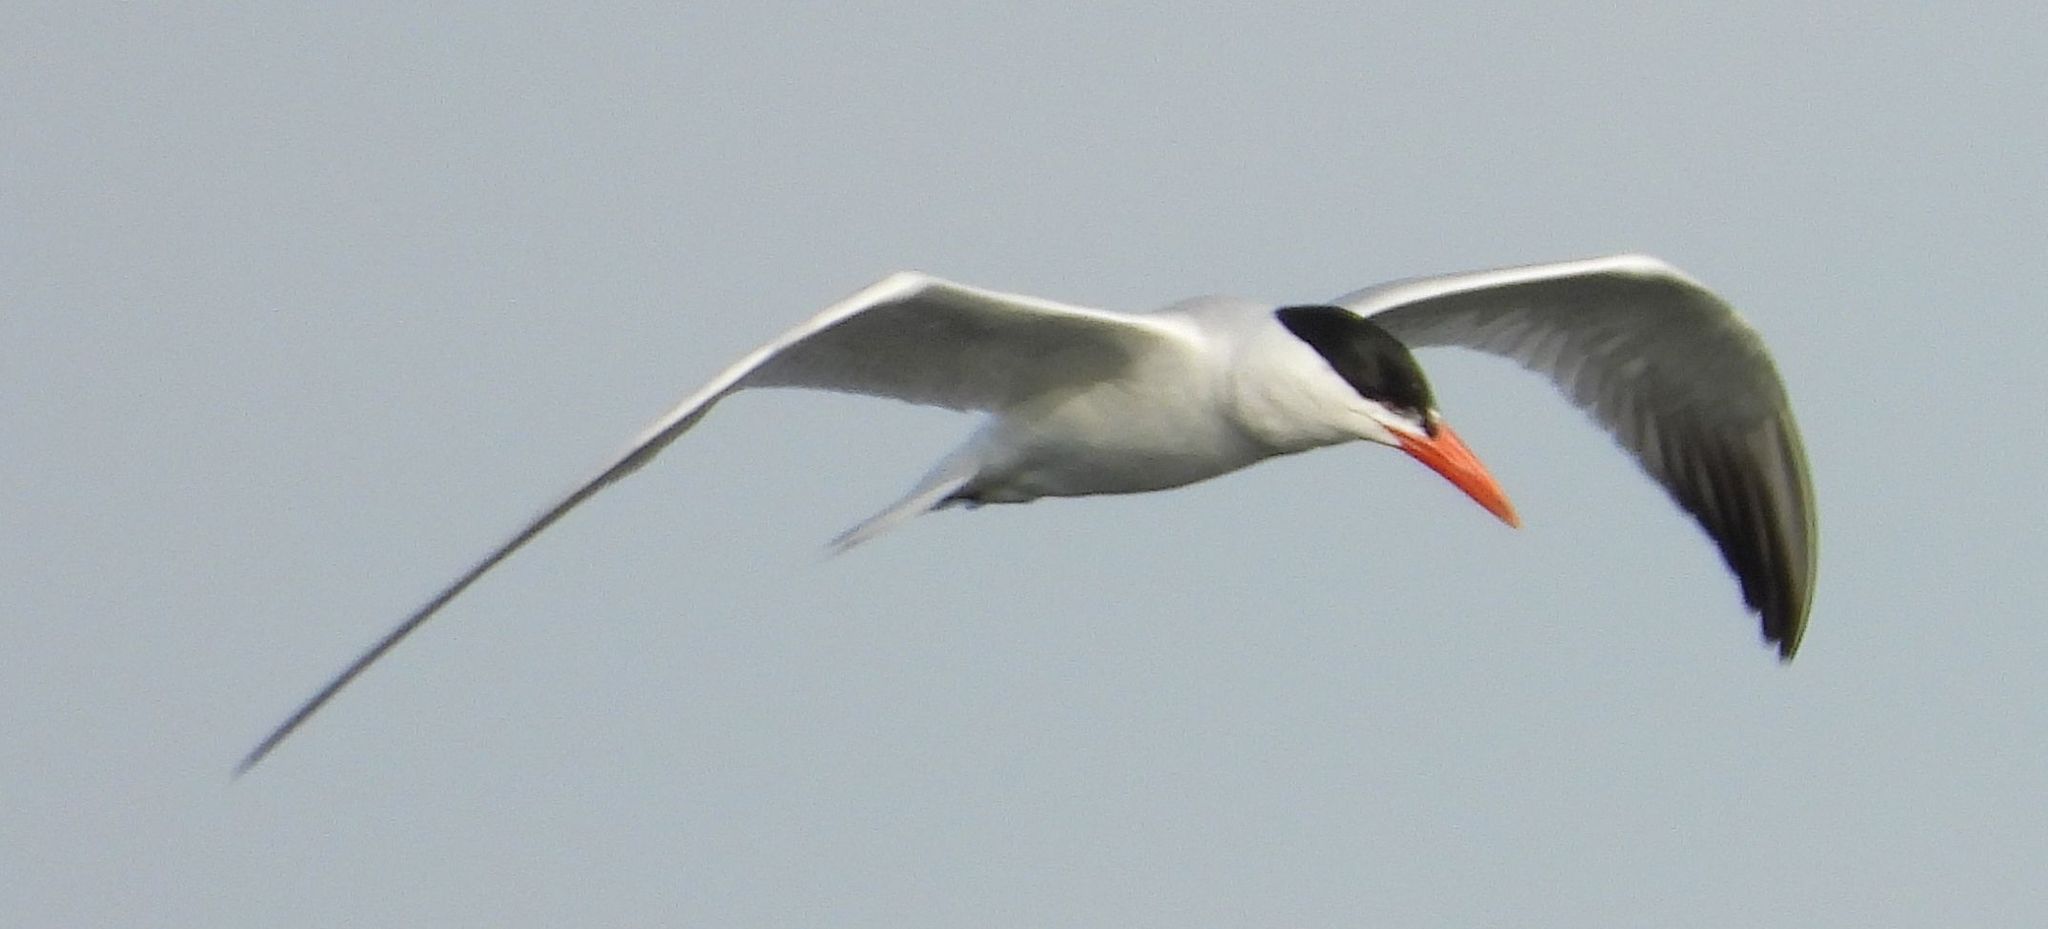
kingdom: Animalia
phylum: Chordata
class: Aves
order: Charadriiformes
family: Laridae
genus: Hydroprogne
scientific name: Hydroprogne caspia
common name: Caspian tern
